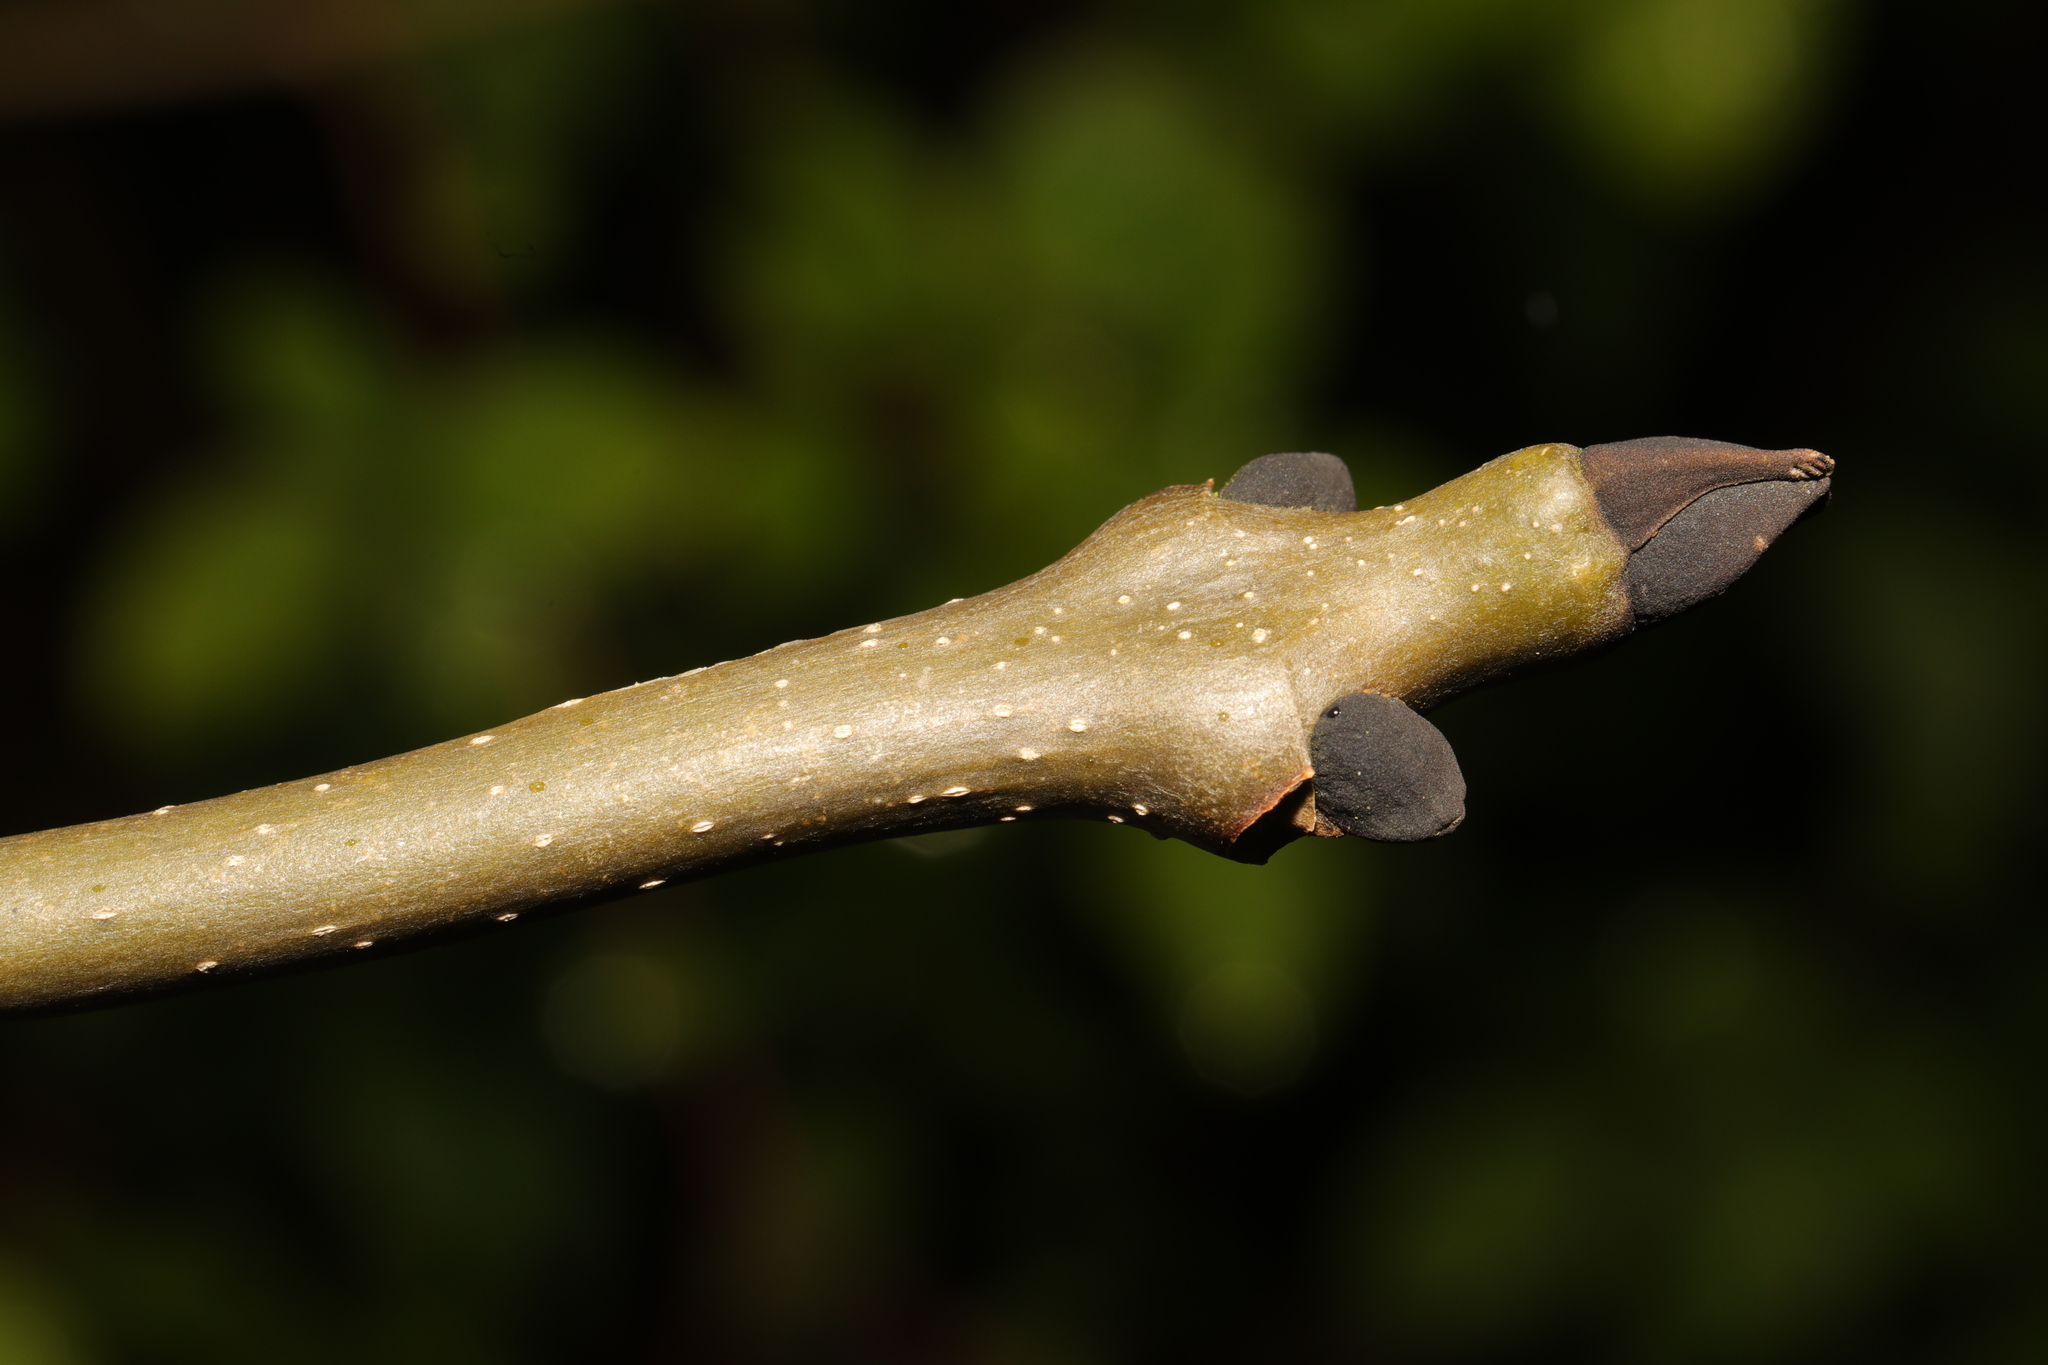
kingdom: Plantae
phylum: Tracheophyta
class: Magnoliopsida
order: Lamiales
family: Oleaceae
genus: Fraxinus
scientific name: Fraxinus excelsior
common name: European ash
